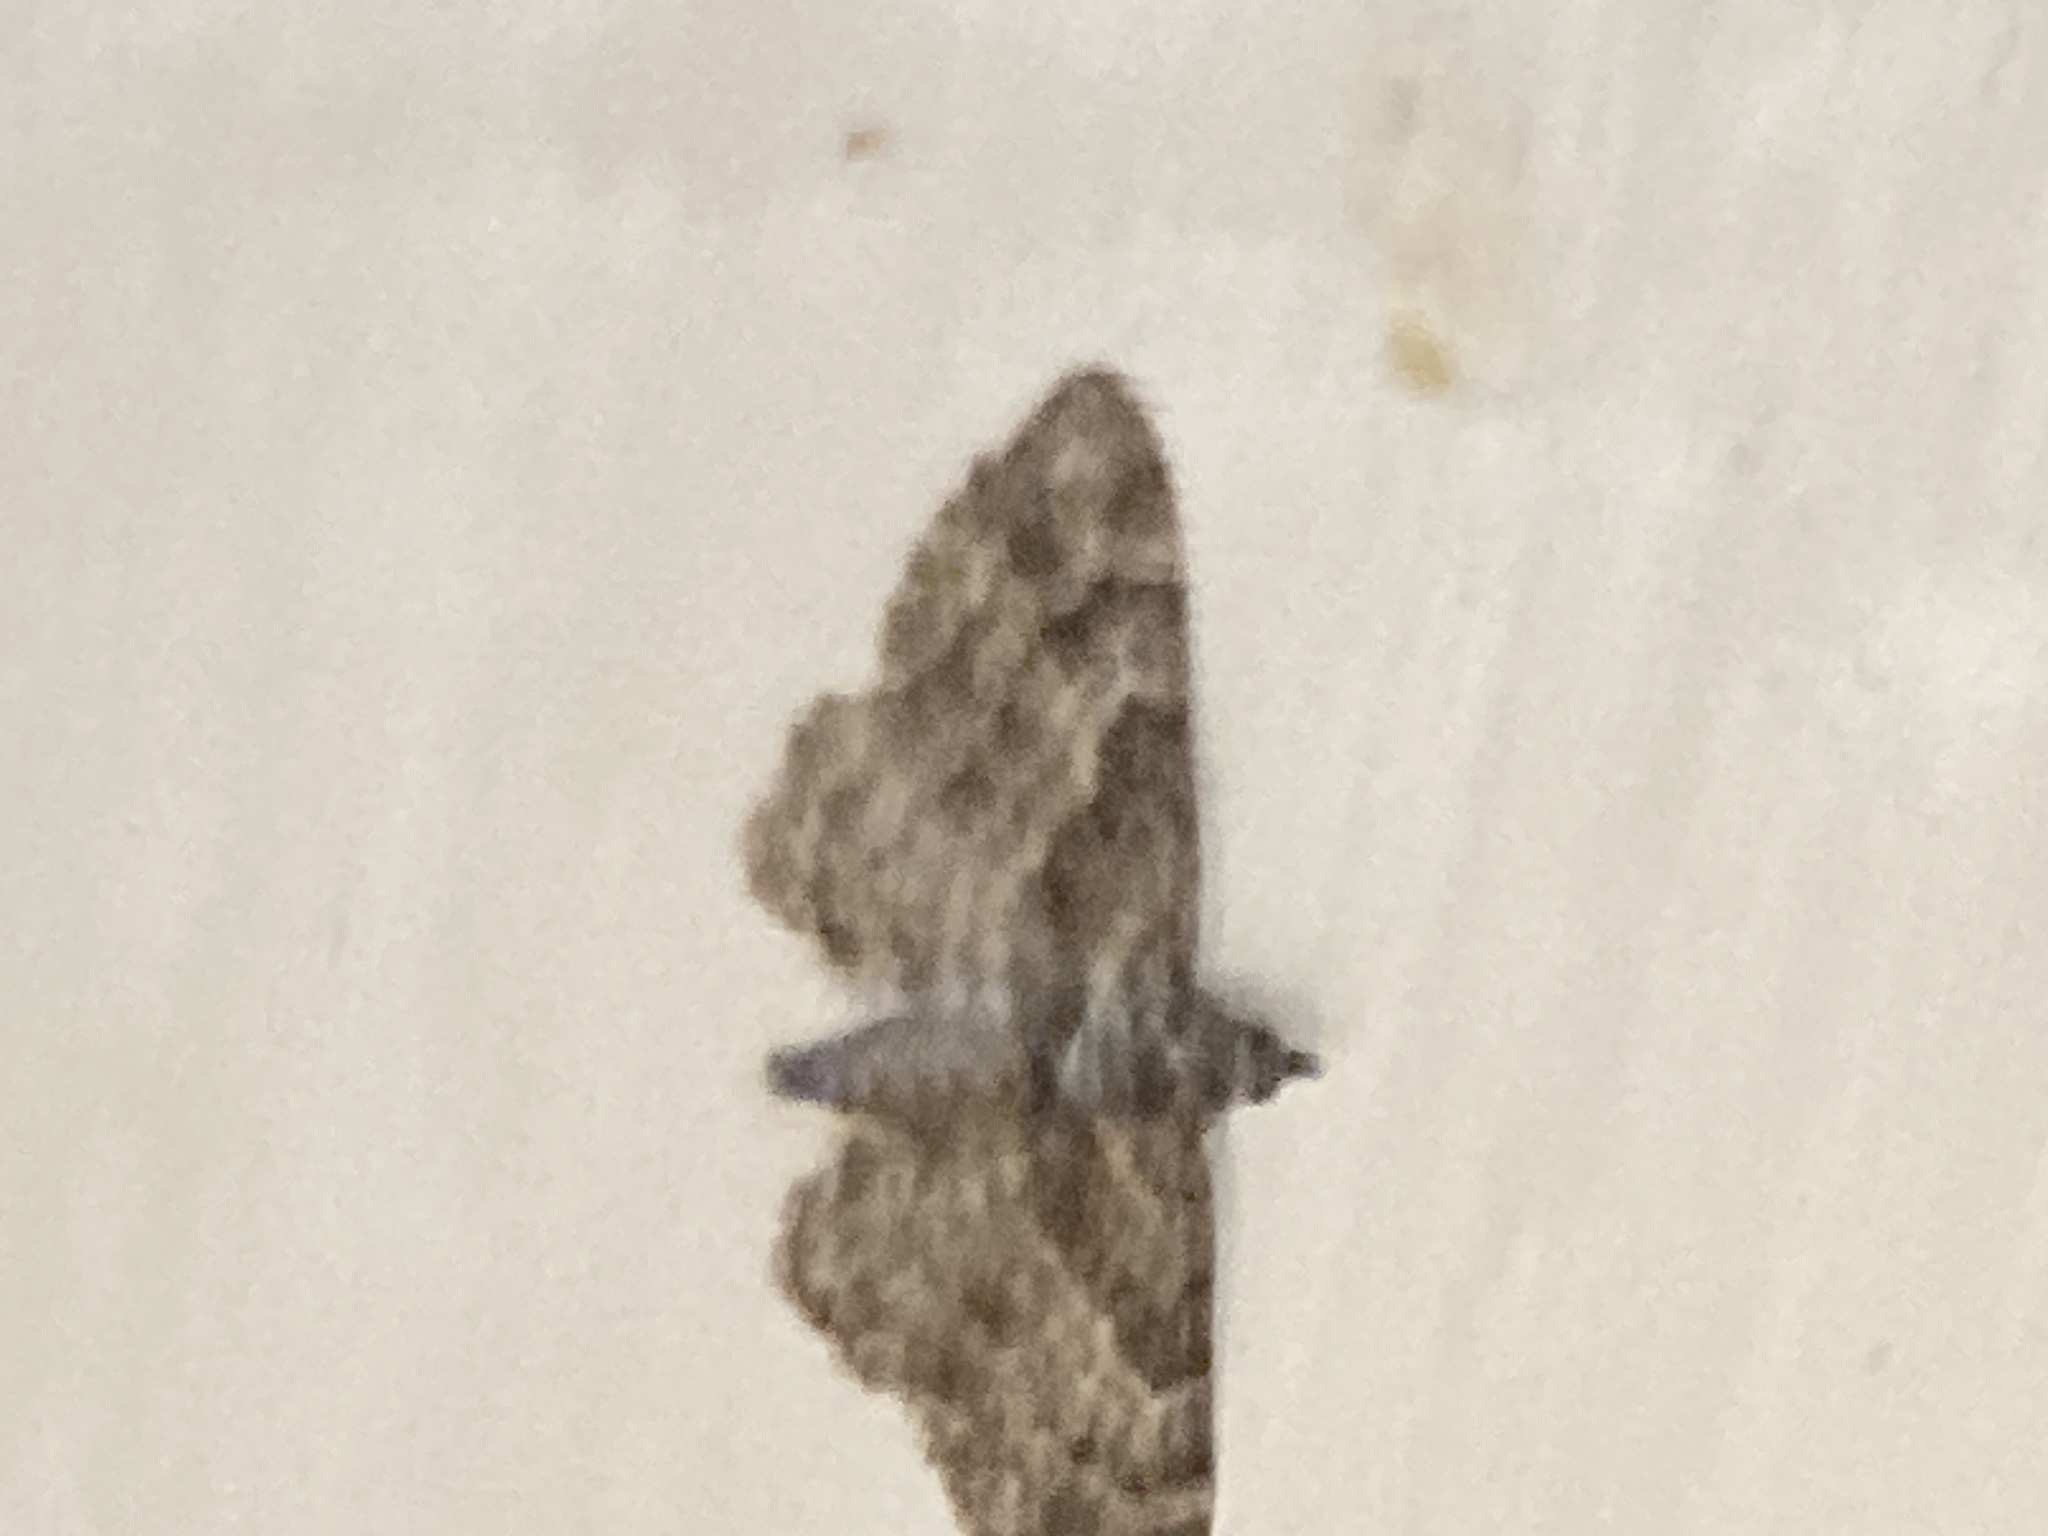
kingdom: Animalia
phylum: Arthropoda
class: Insecta
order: Lepidoptera
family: Geometridae
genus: Gymnoscelis
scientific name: Gymnoscelis rufifasciata
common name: Double-striped pug
